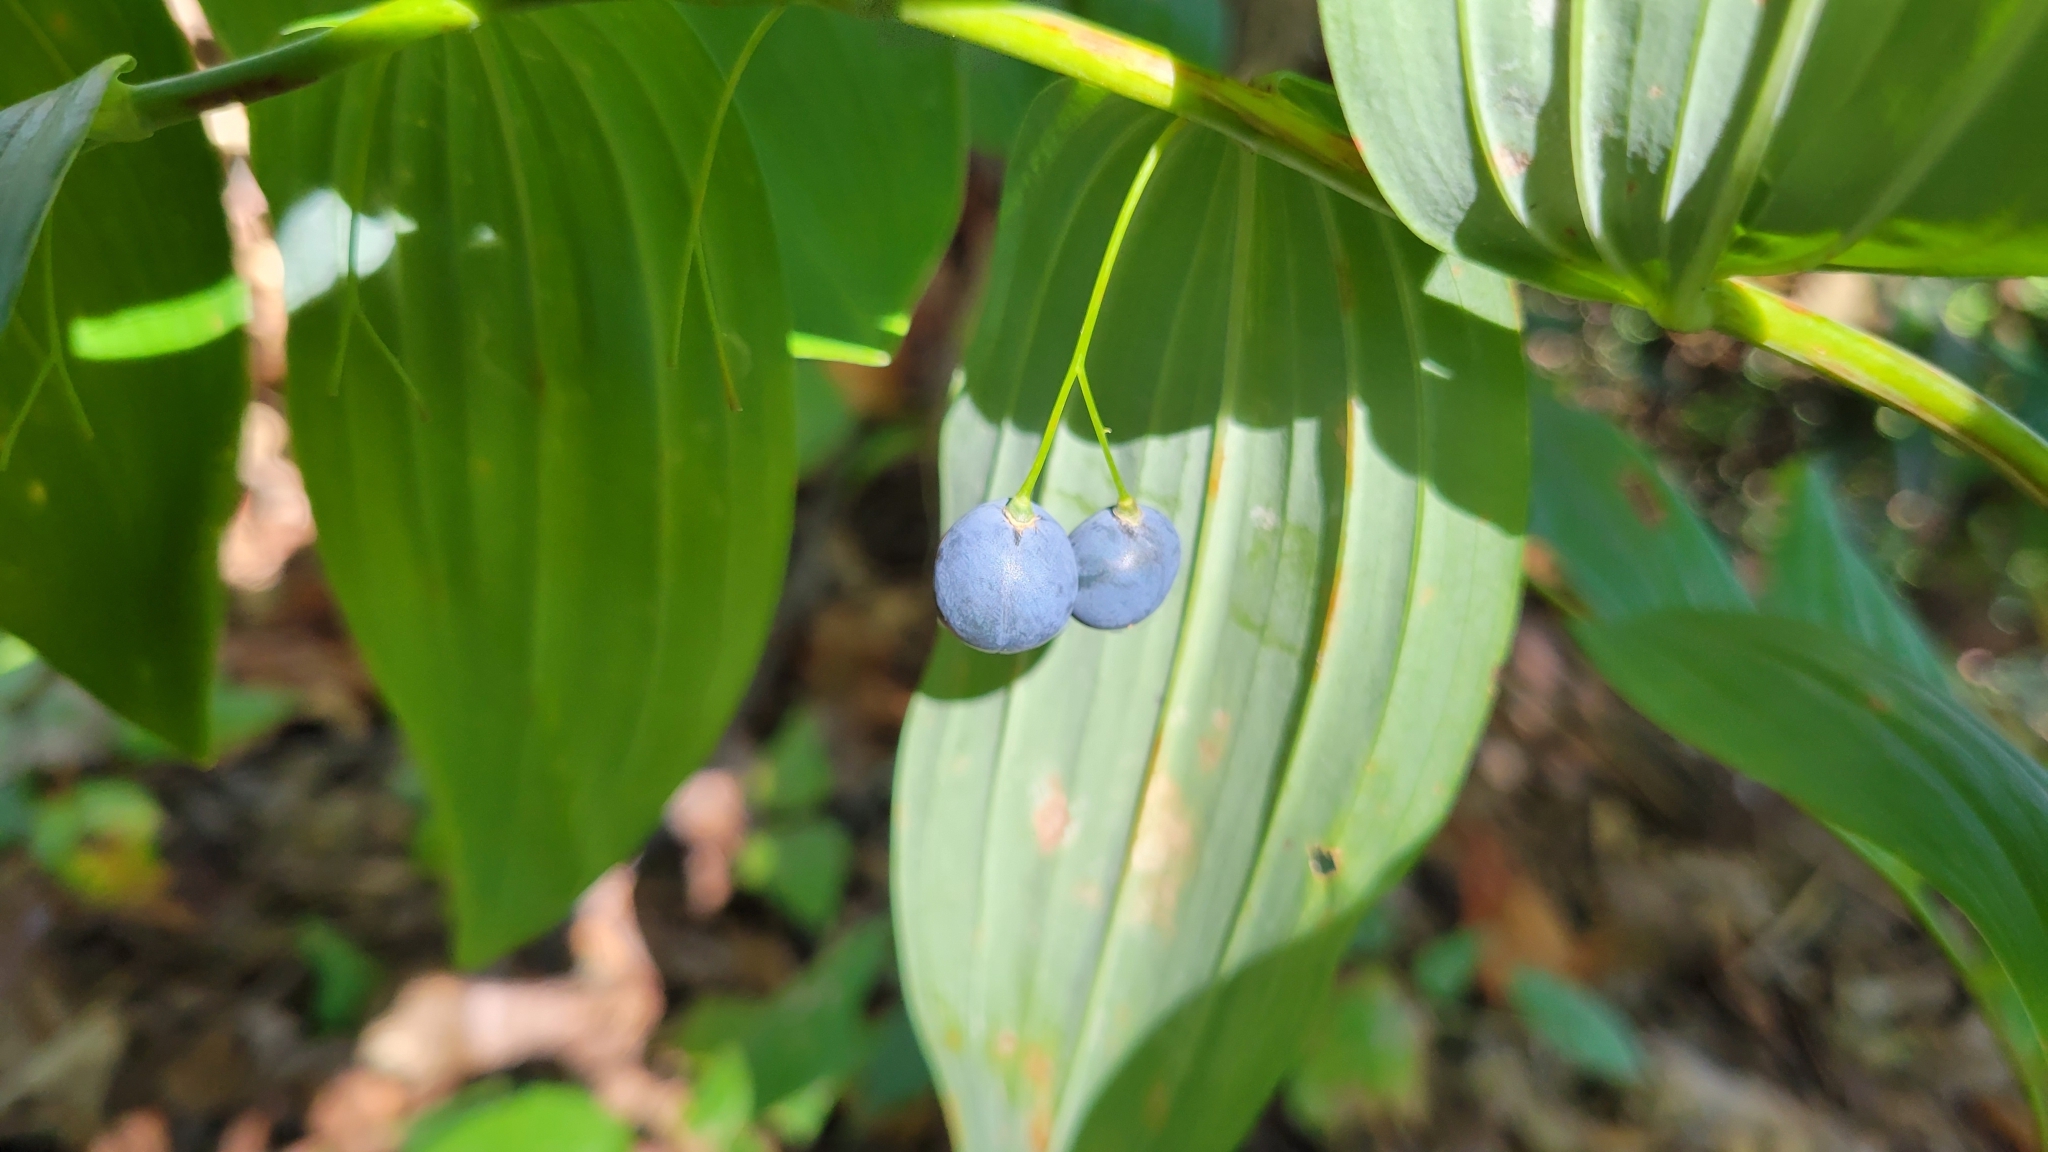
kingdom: Plantae
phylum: Tracheophyta
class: Liliopsida
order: Asparagales
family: Asparagaceae
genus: Polygonatum
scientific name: Polygonatum biflorum
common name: American solomon's-seal
